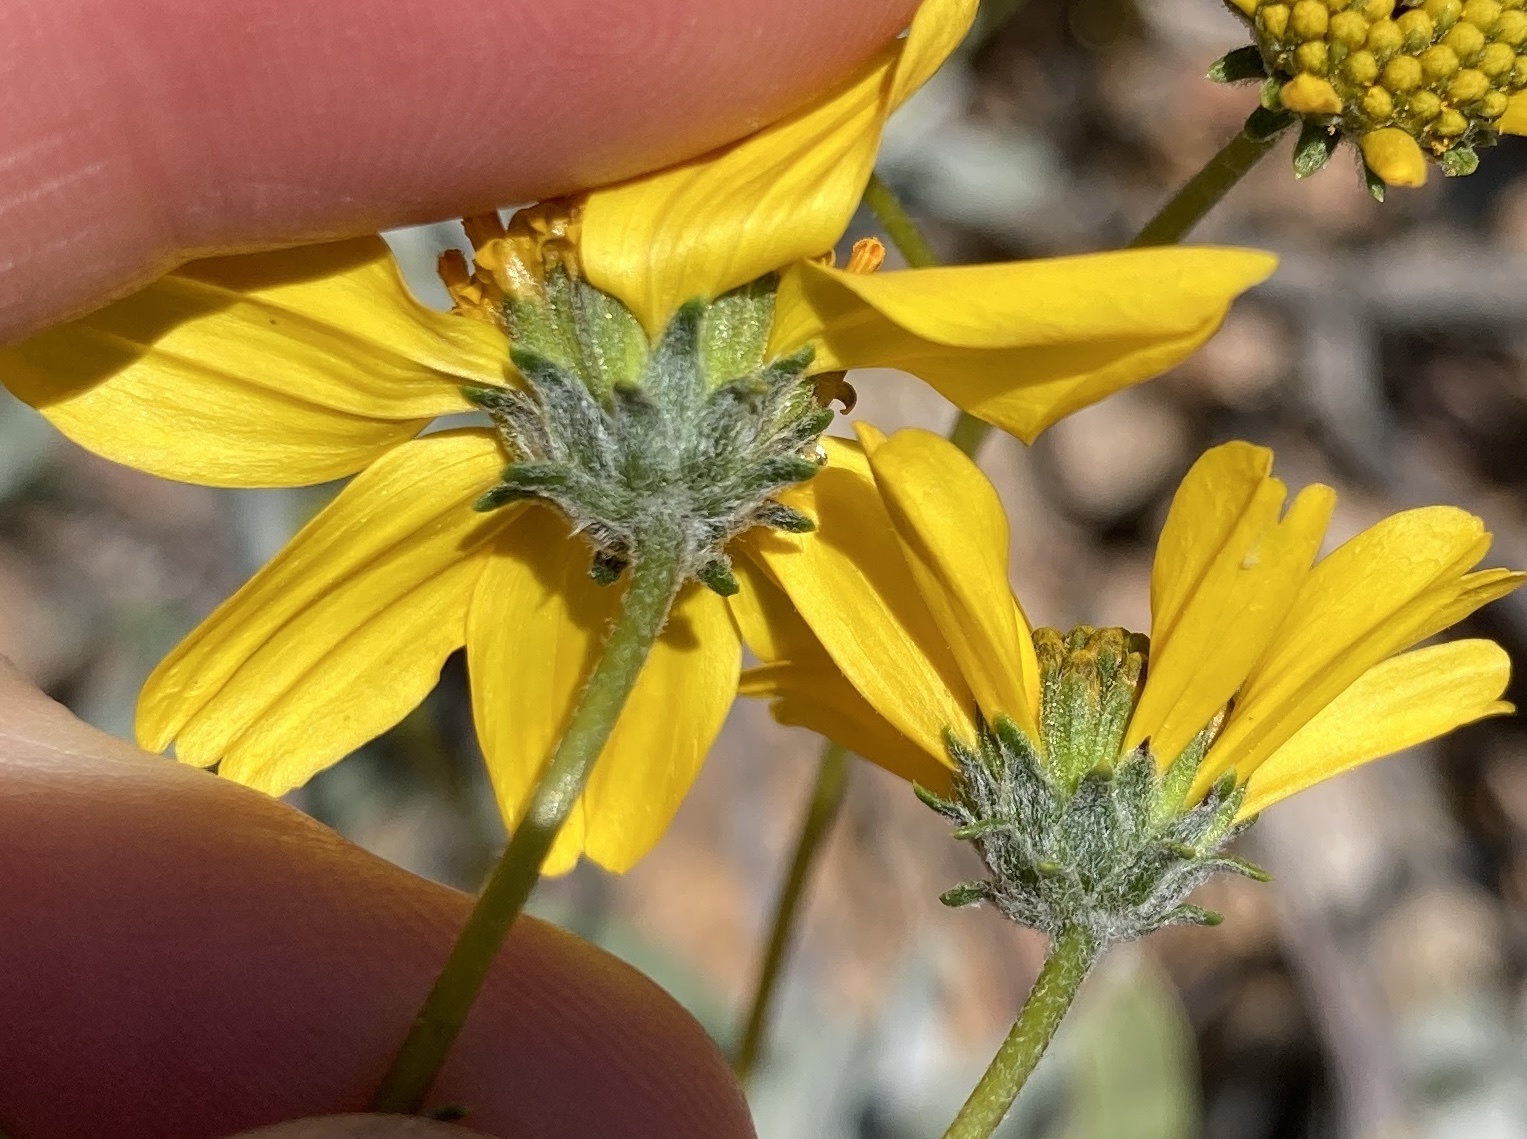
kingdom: Plantae
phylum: Tracheophyta
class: Magnoliopsida
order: Asterales
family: Asteraceae
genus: Encelia
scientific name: Encelia farinosa
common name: Brittlebush
